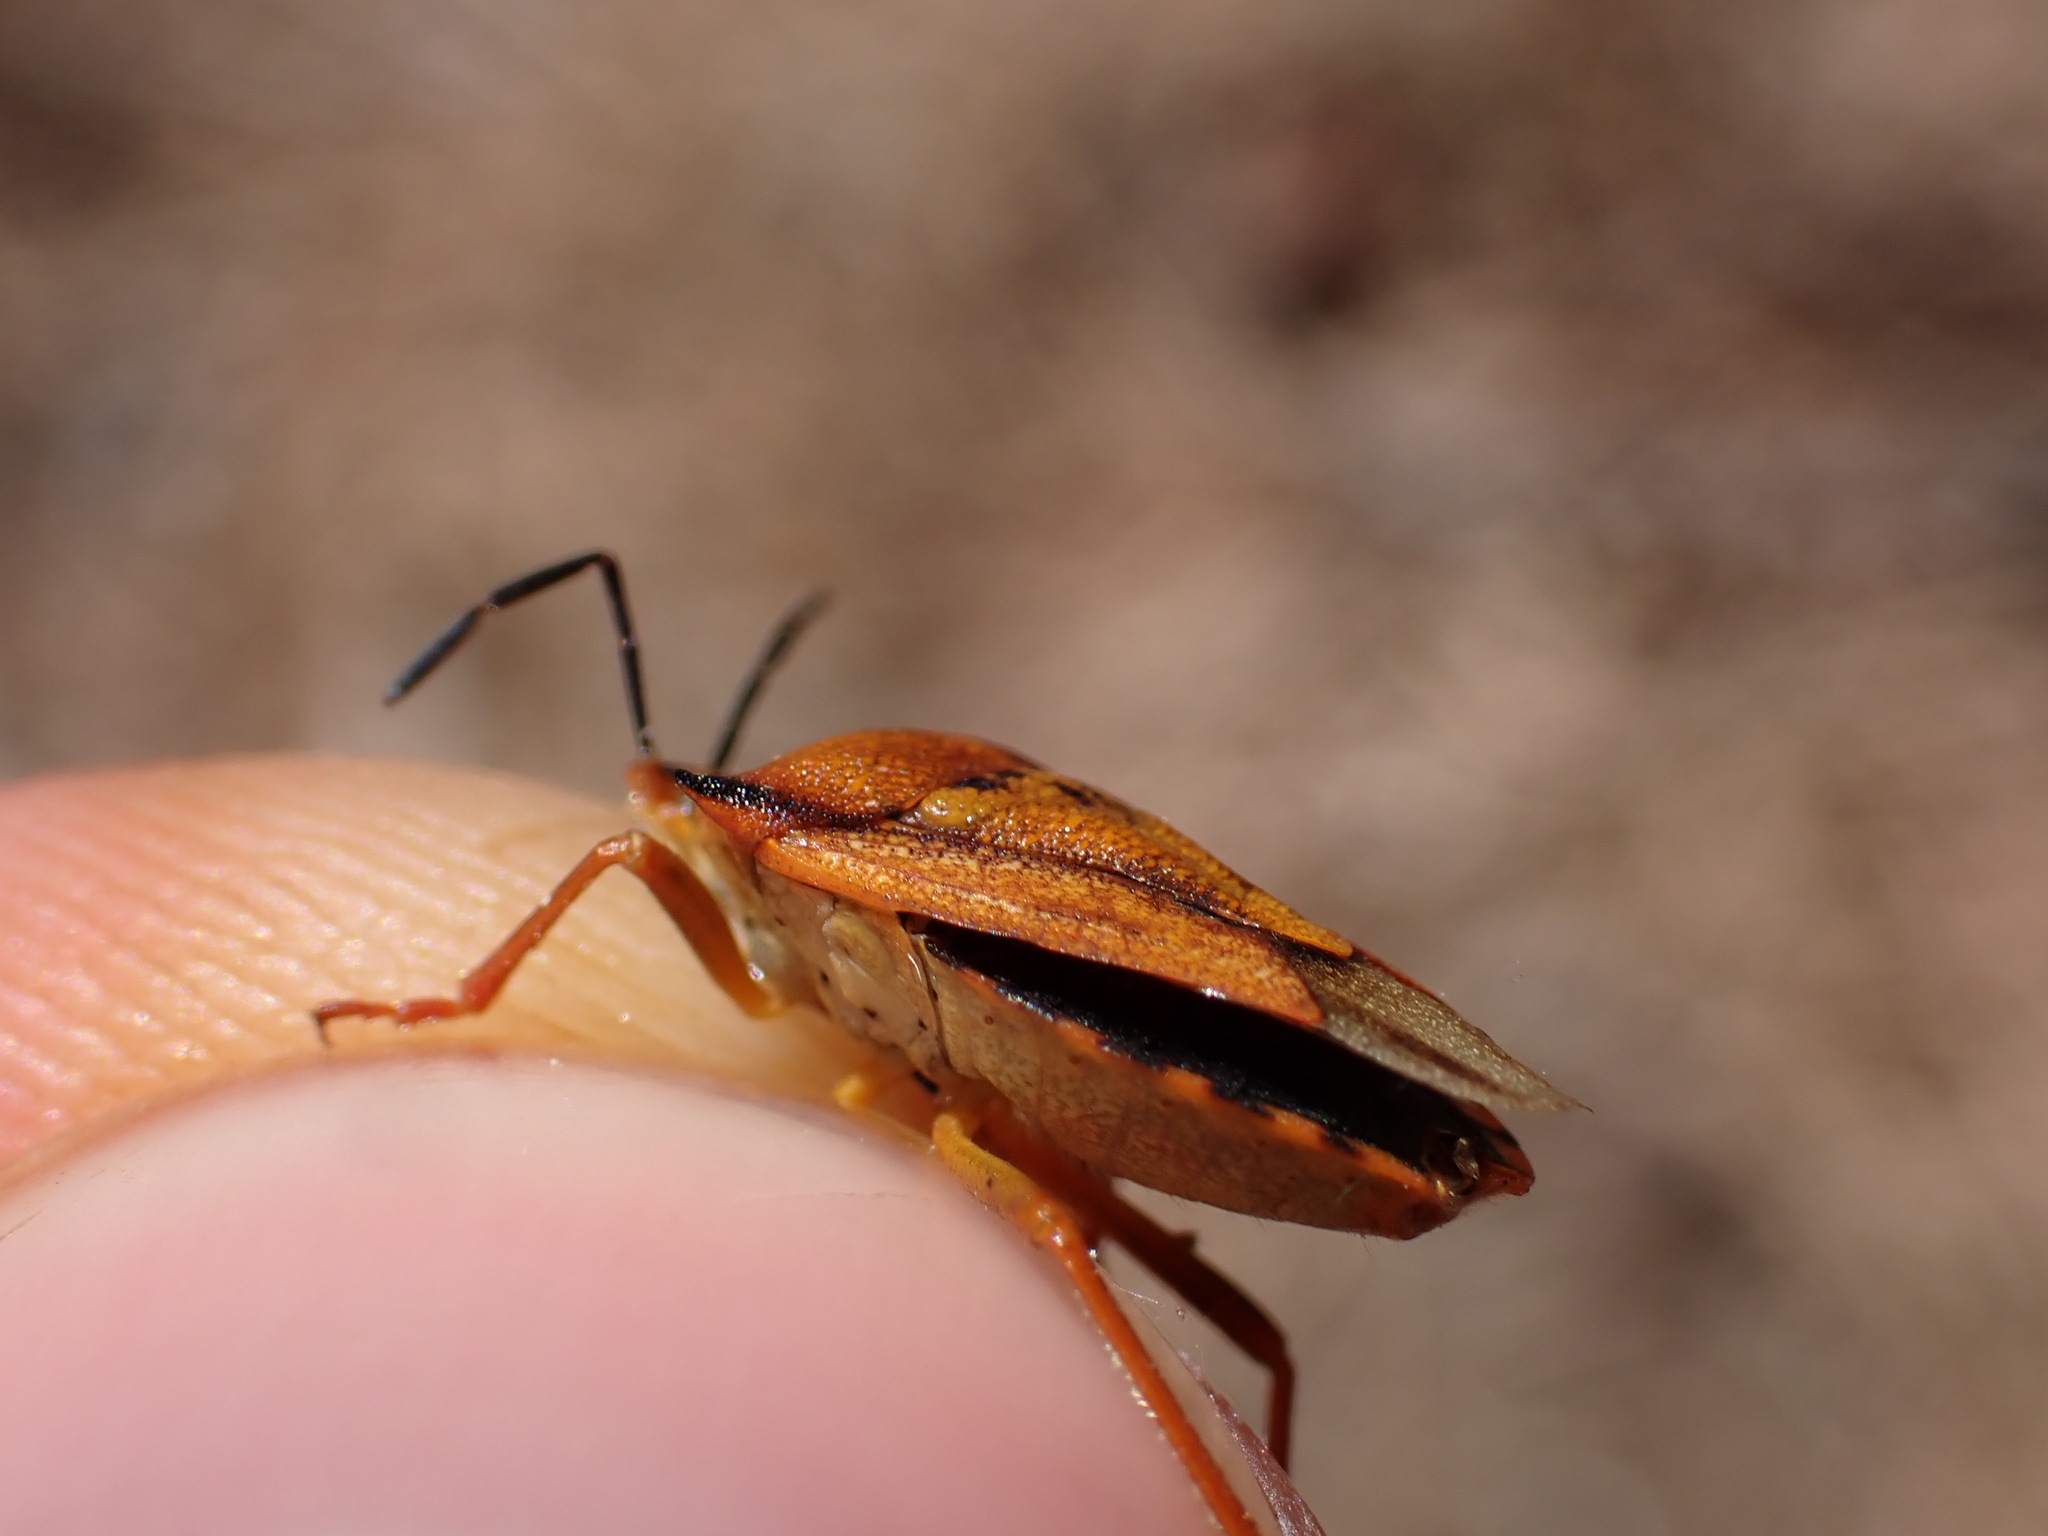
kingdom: Animalia
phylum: Arthropoda
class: Insecta
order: Hemiptera
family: Pentatomidae
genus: Carpocoris
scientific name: Carpocoris mediterraneus
